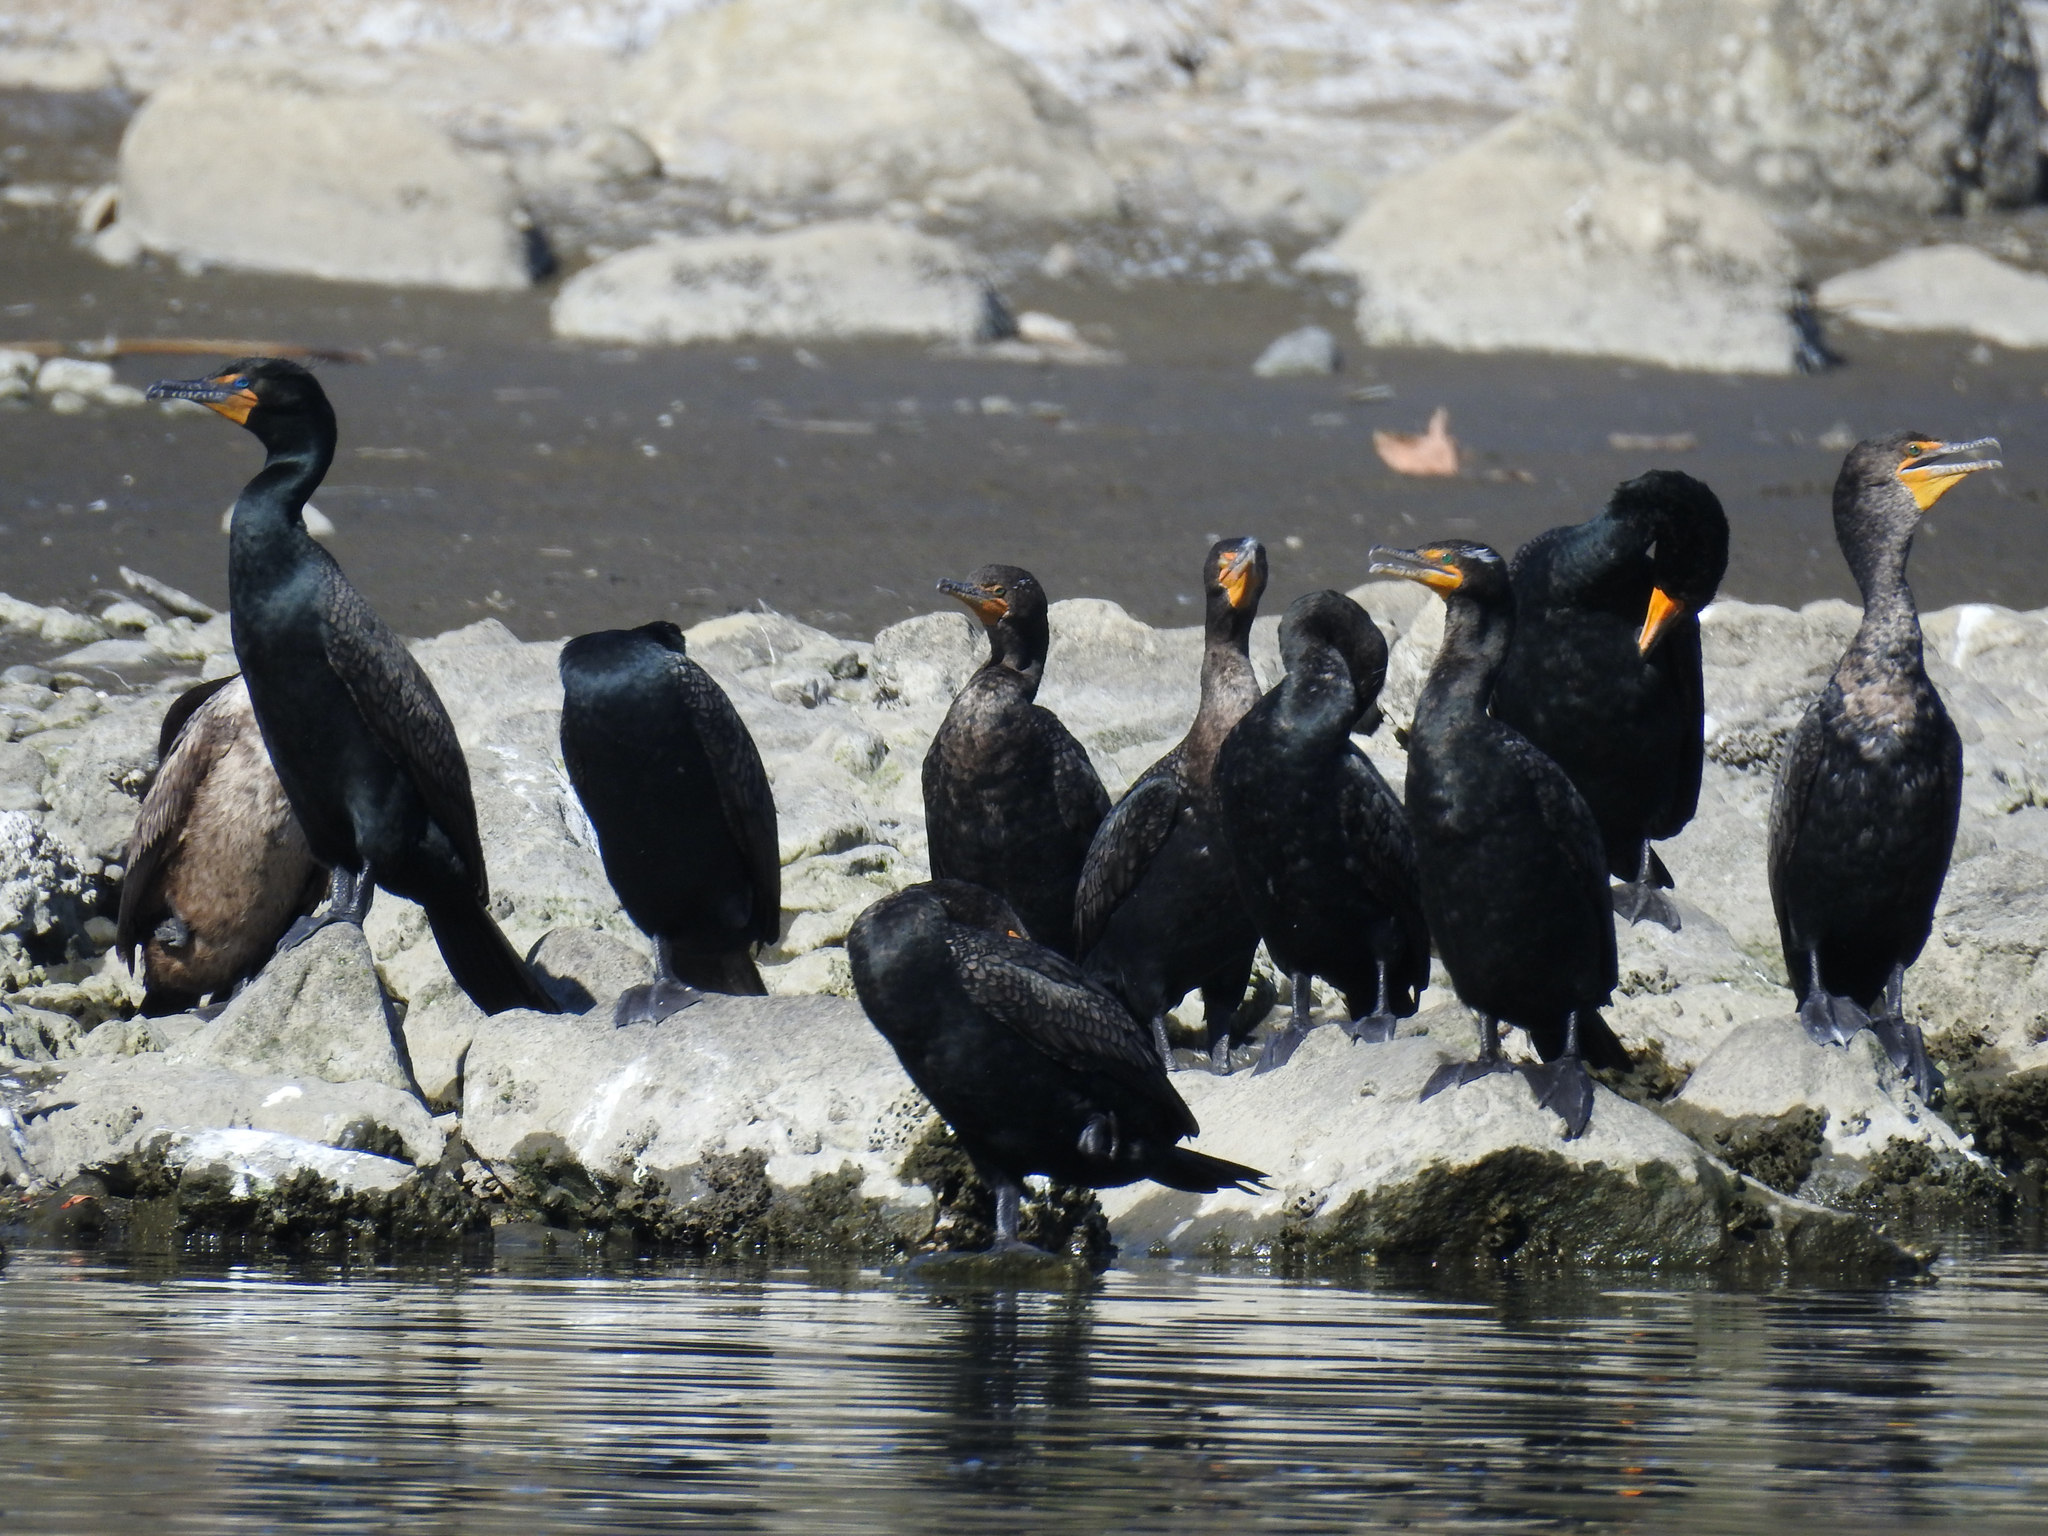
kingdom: Animalia
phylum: Chordata
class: Aves
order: Suliformes
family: Phalacrocoracidae
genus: Phalacrocorax
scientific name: Phalacrocorax auritus
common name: Double-crested cormorant
